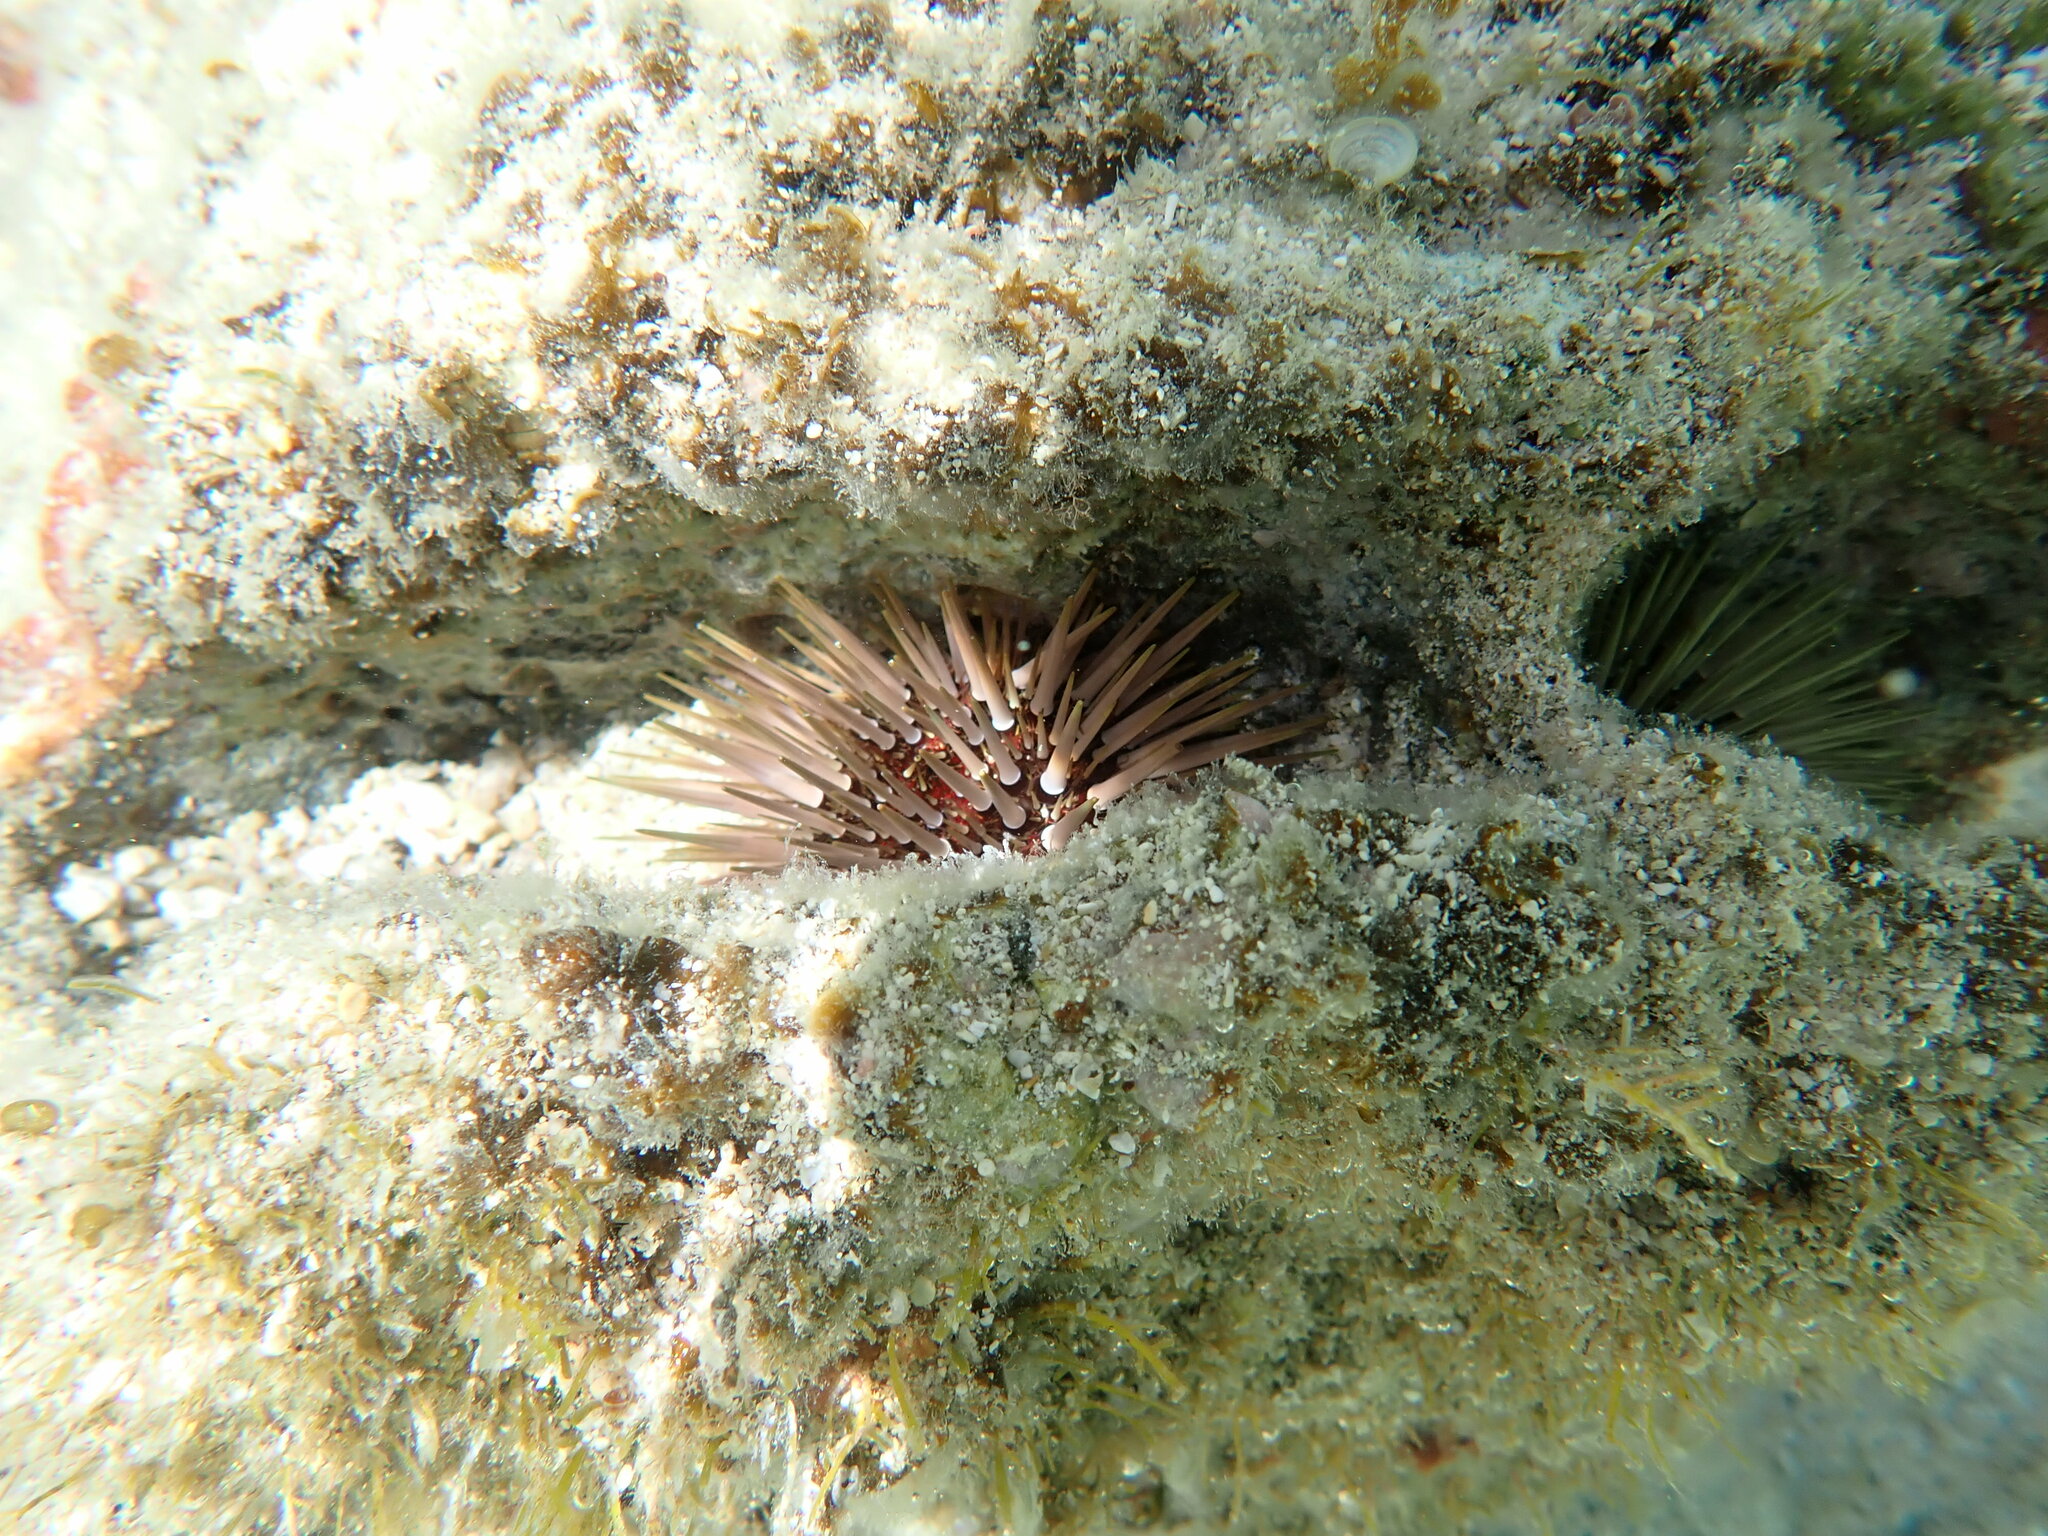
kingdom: Animalia
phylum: Echinodermata
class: Echinoidea
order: Camarodonta
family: Echinometridae
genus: Echinometra
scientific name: Echinometra mathaei
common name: Rock-boring urchin
